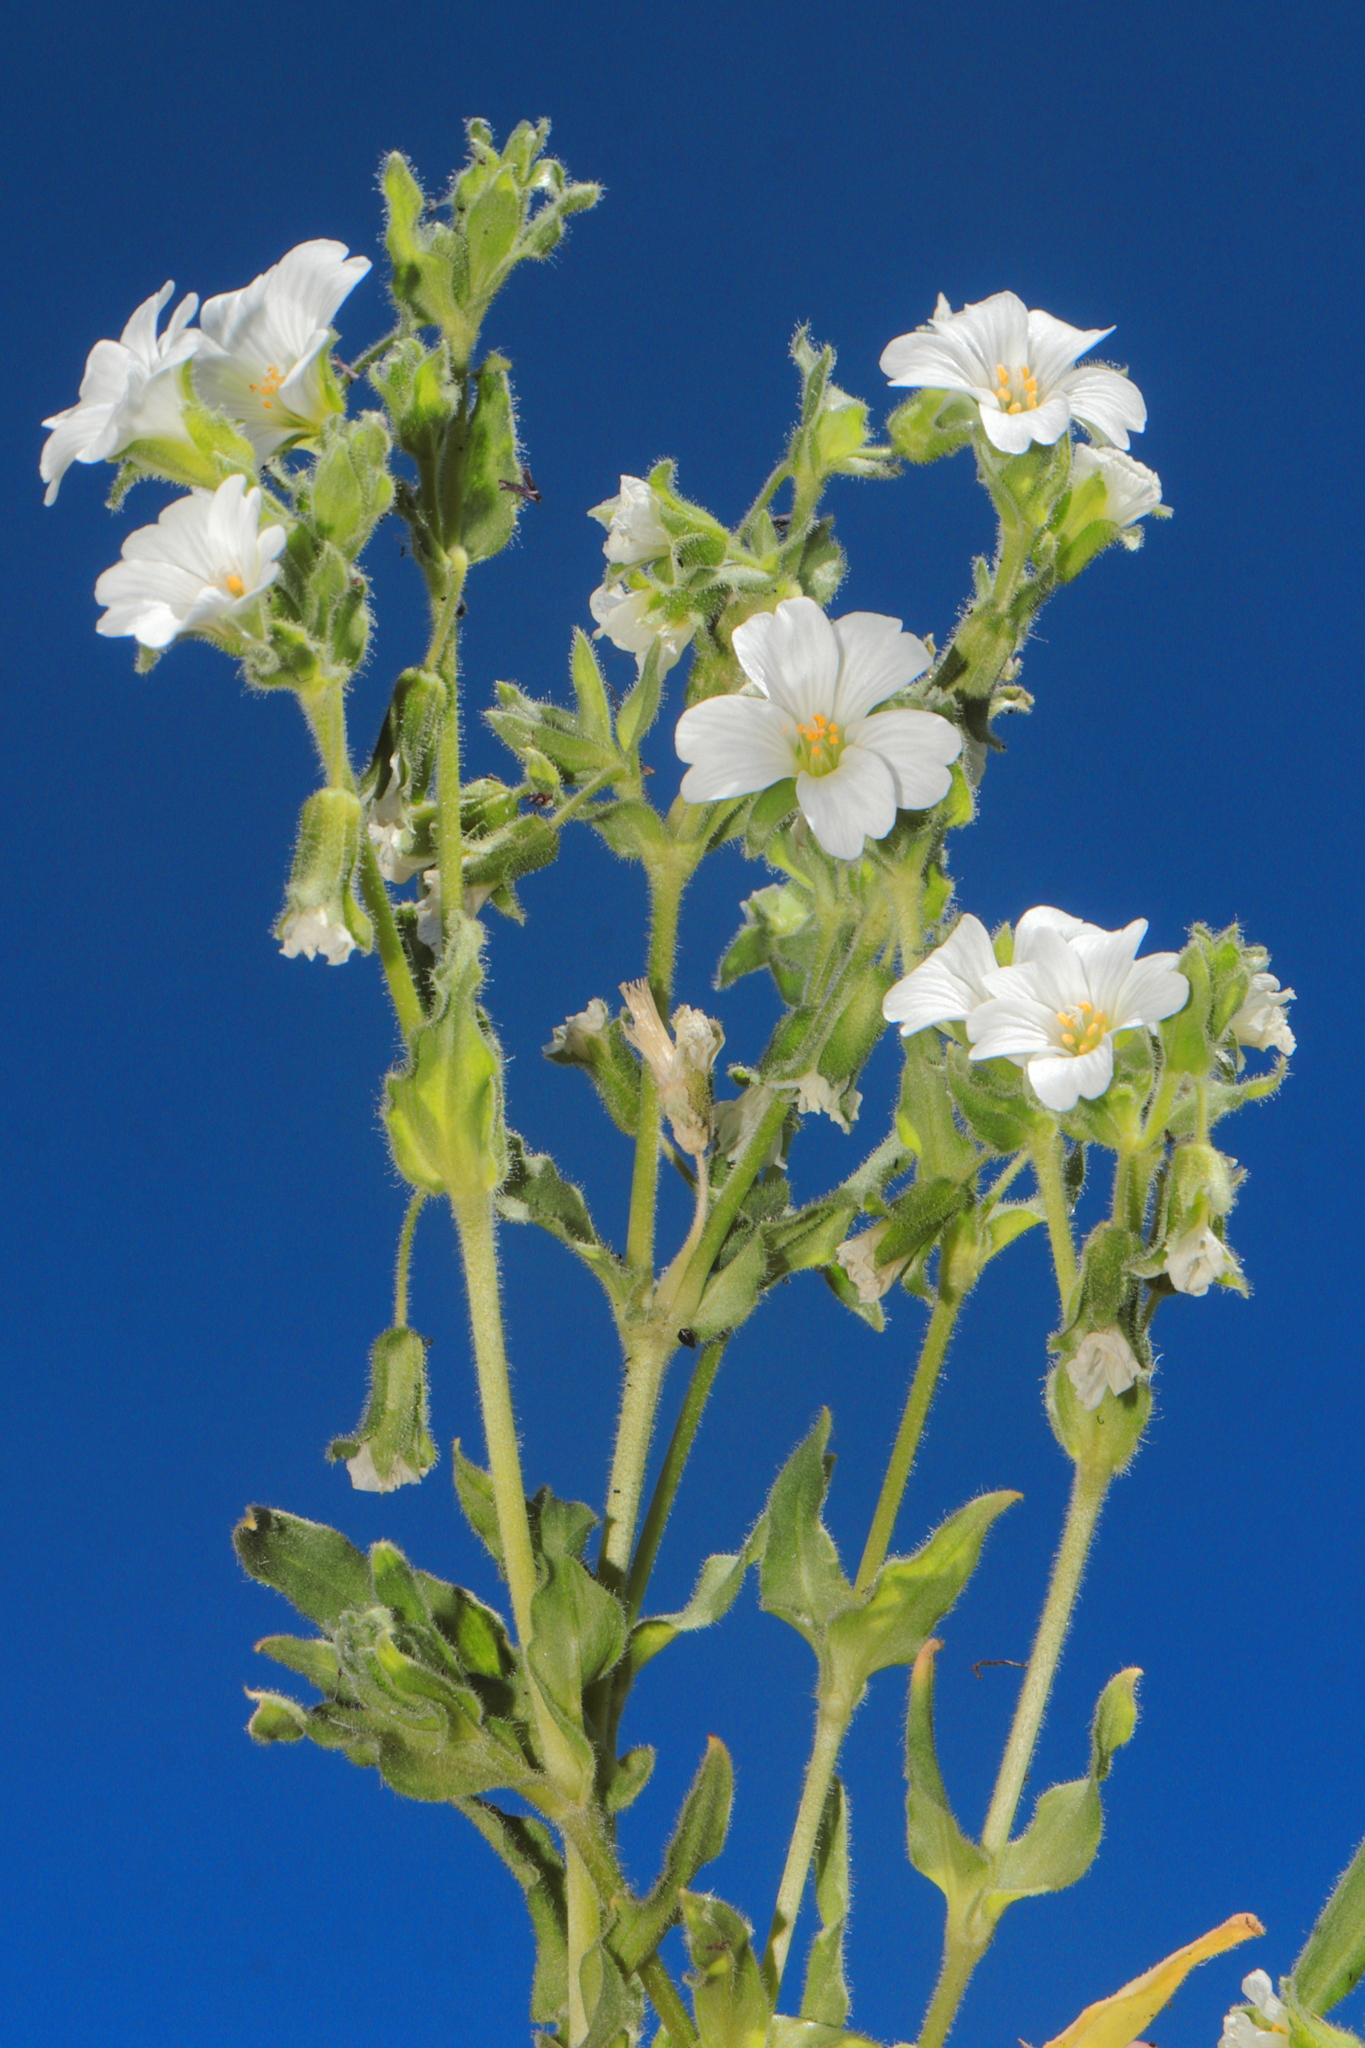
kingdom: Plantae
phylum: Tracheophyta
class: Magnoliopsida
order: Caryophyllales
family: Caryophyllaceae
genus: Cerastium
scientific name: Cerastium mucronatum
